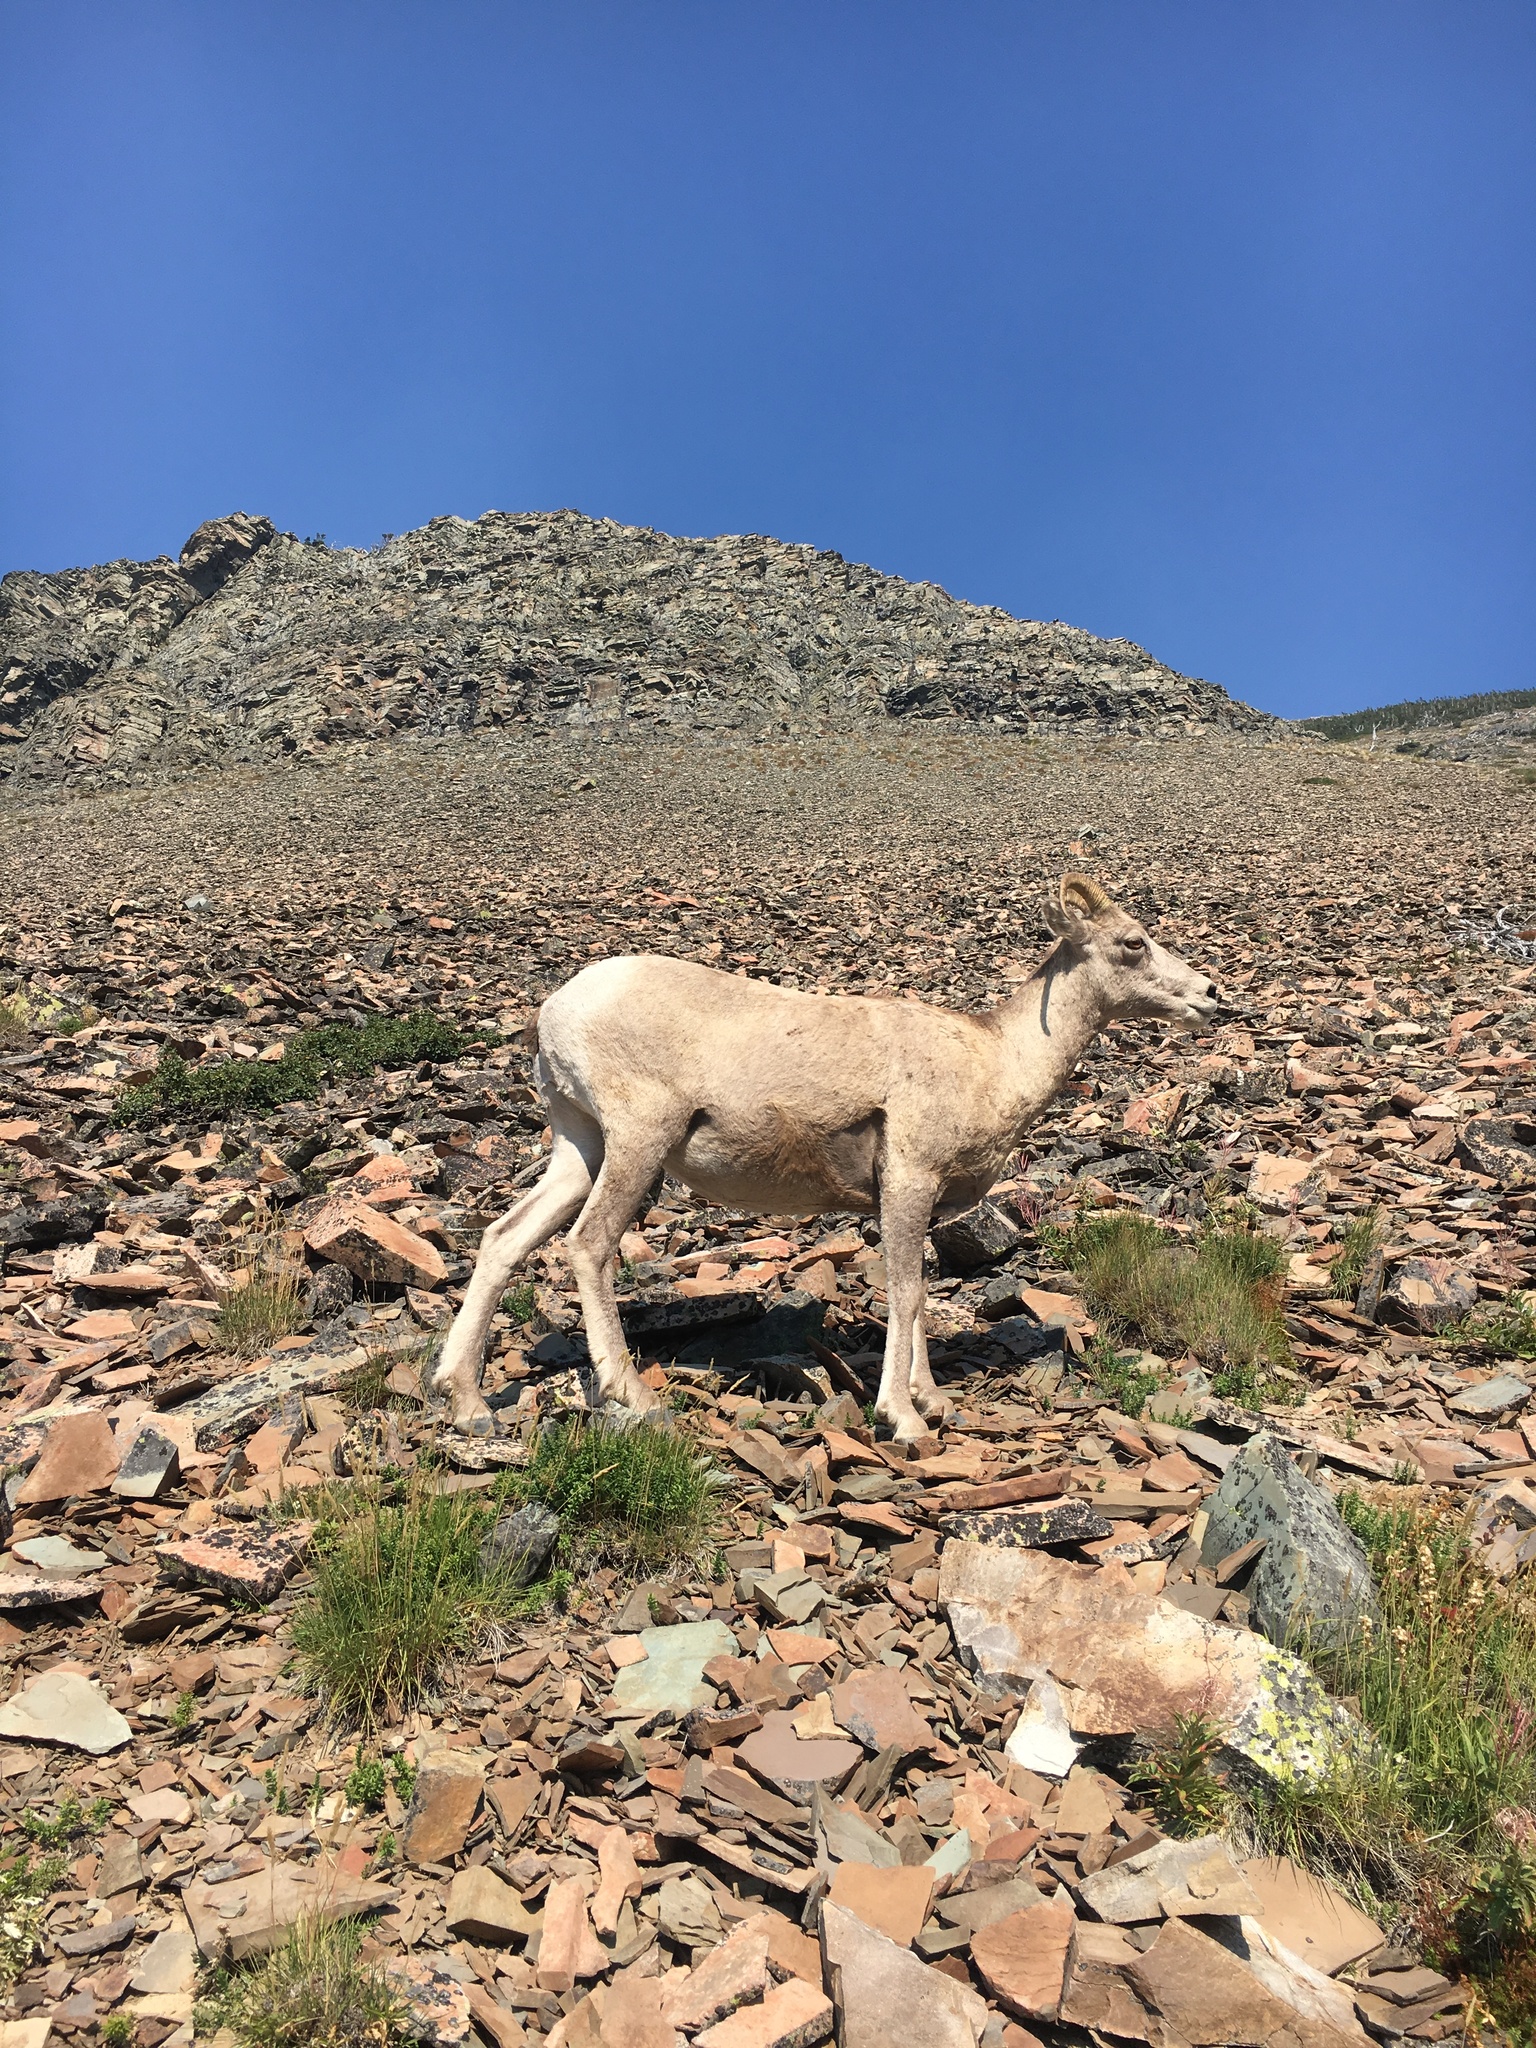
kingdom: Animalia
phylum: Chordata
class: Mammalia
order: Artiodactyla
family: Bovidae
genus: Ovis
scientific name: Ovis canadensis
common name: Bighorn sheep
